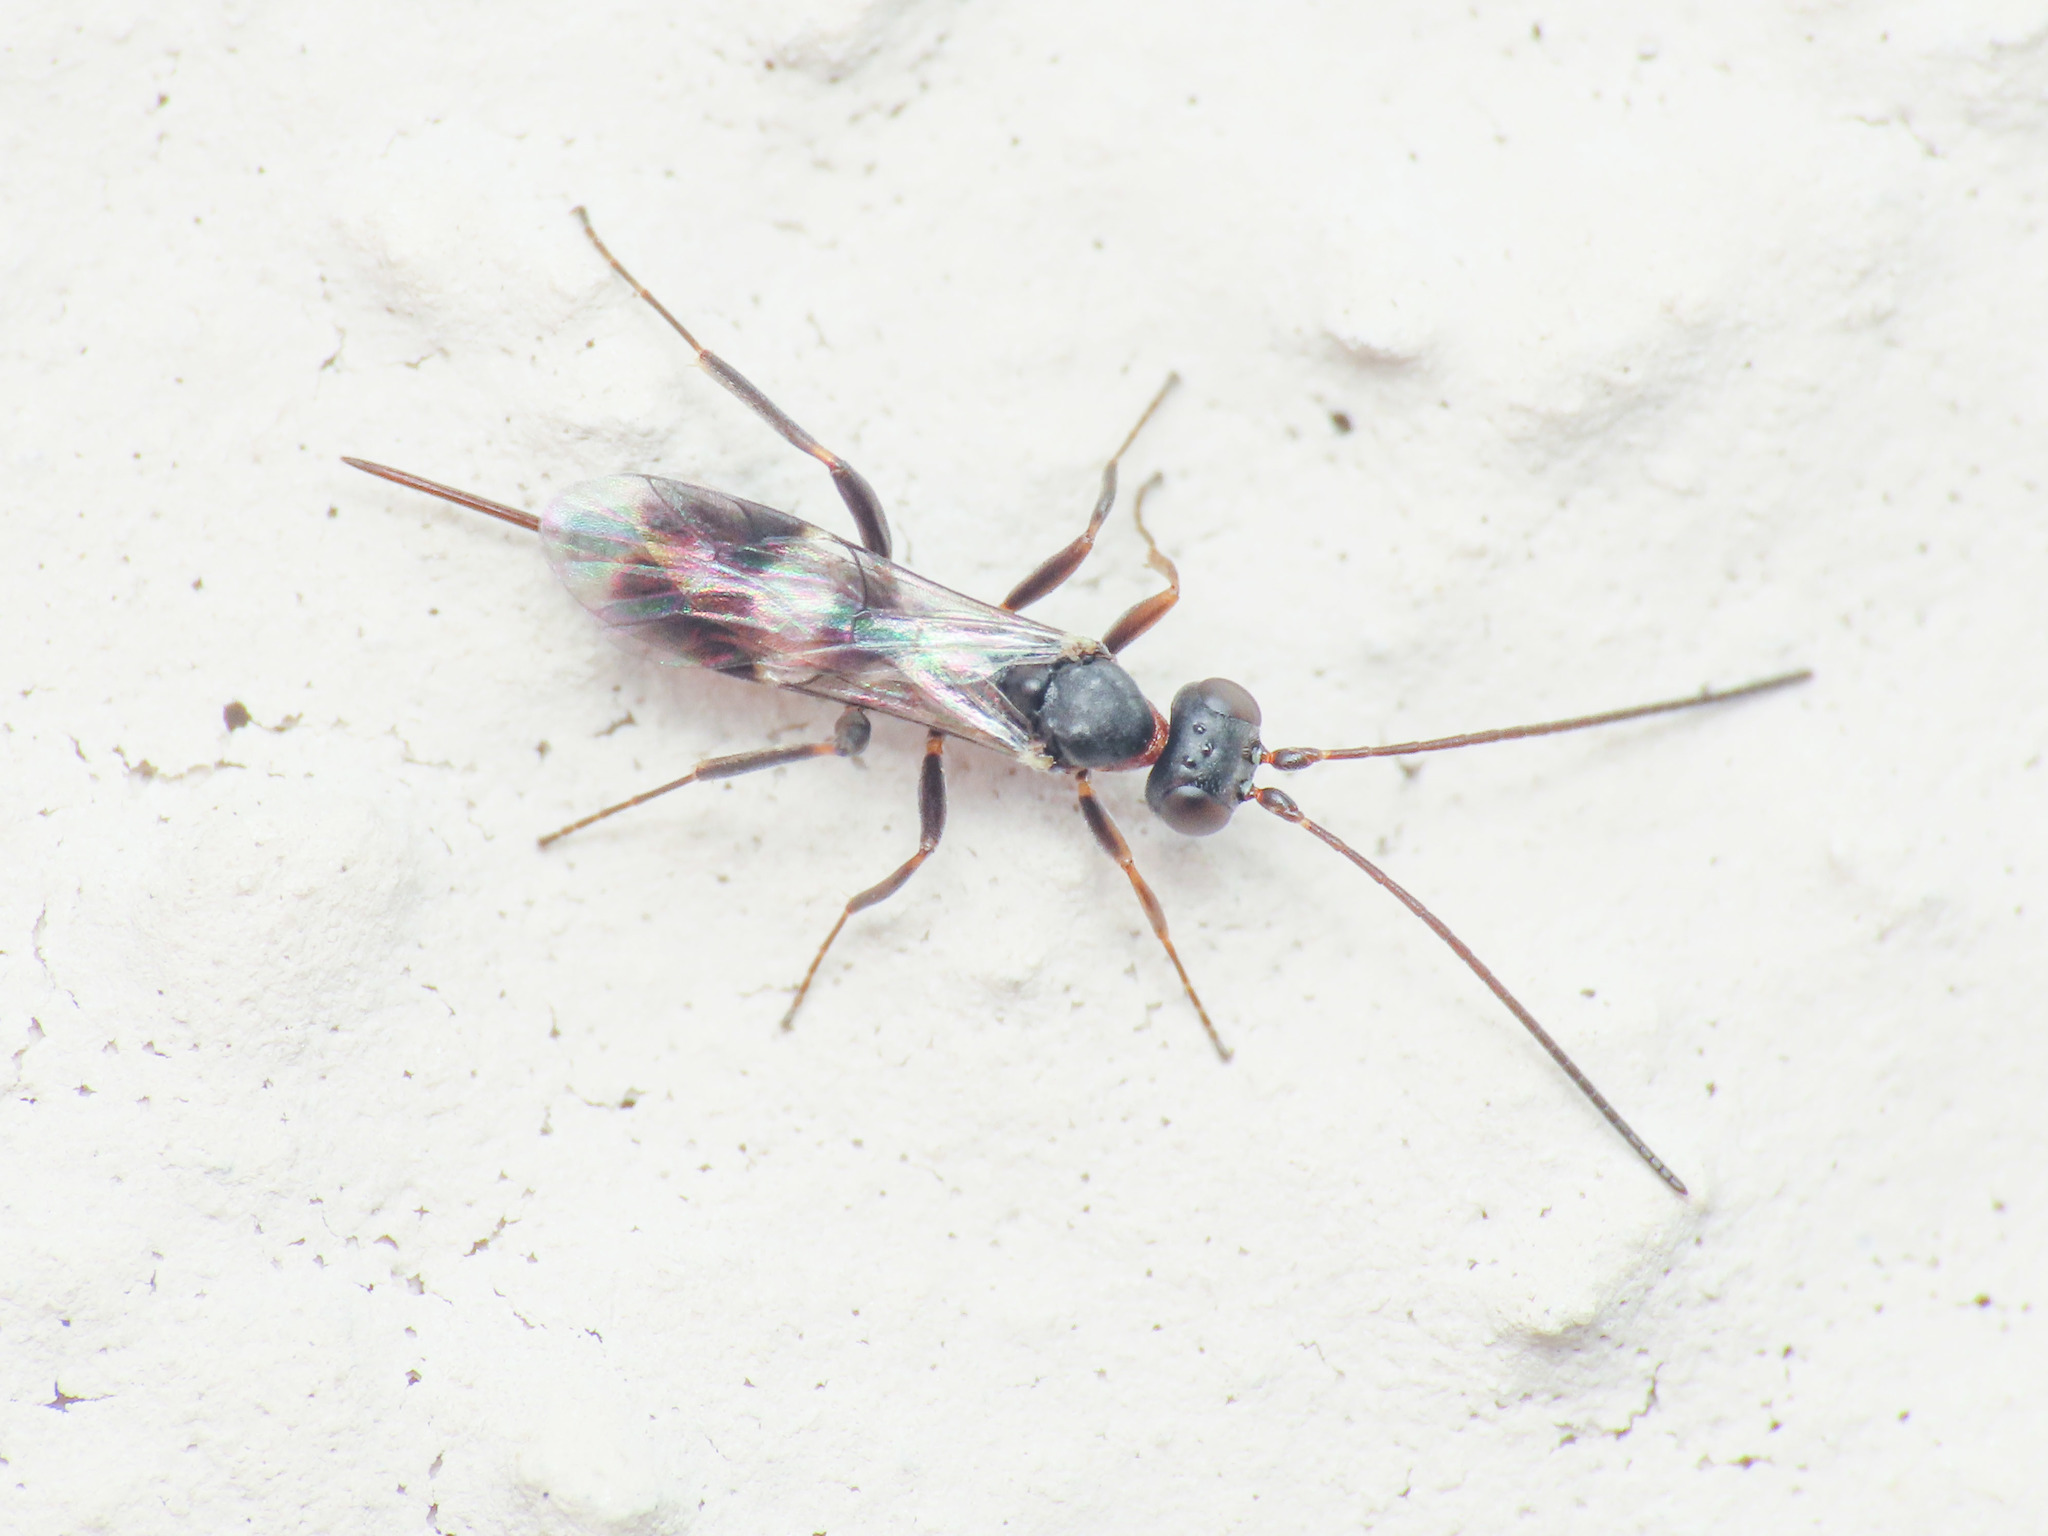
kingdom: Animalia
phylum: Arthropoda
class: Insecta
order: Hymenoptera
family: Ichneumonidae
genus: Gelis
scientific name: Gelis longicauda
